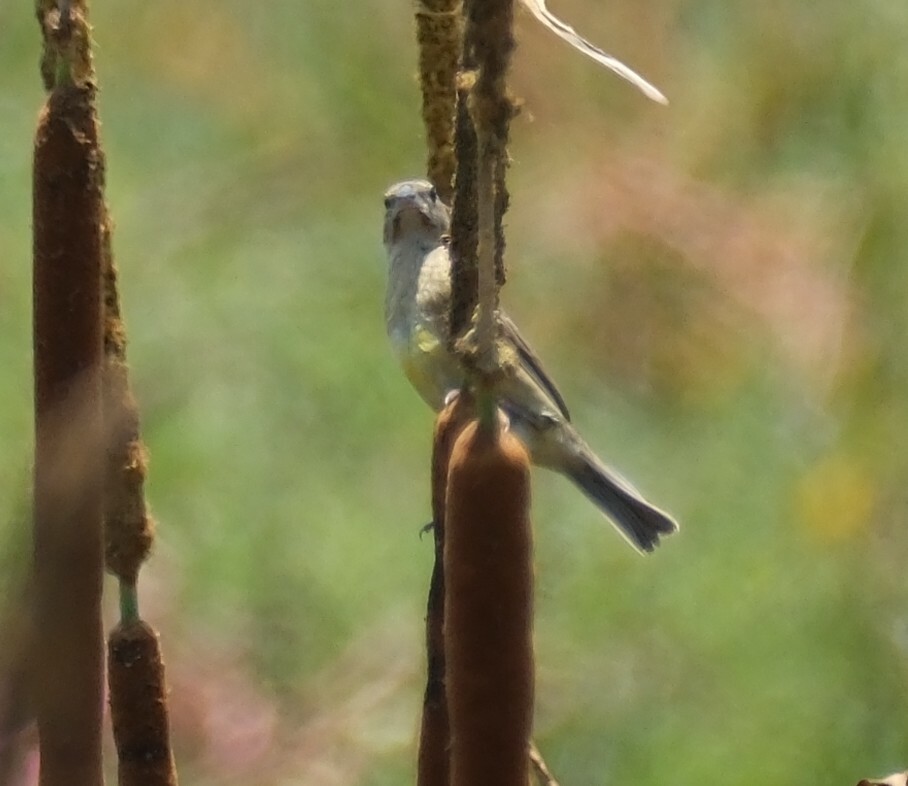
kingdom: Animalia
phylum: Chordata
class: Aves
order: Passeriformes
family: Thraupidae
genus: Sicalis
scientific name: Sicalis luteola
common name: Grassland yellow-finch
